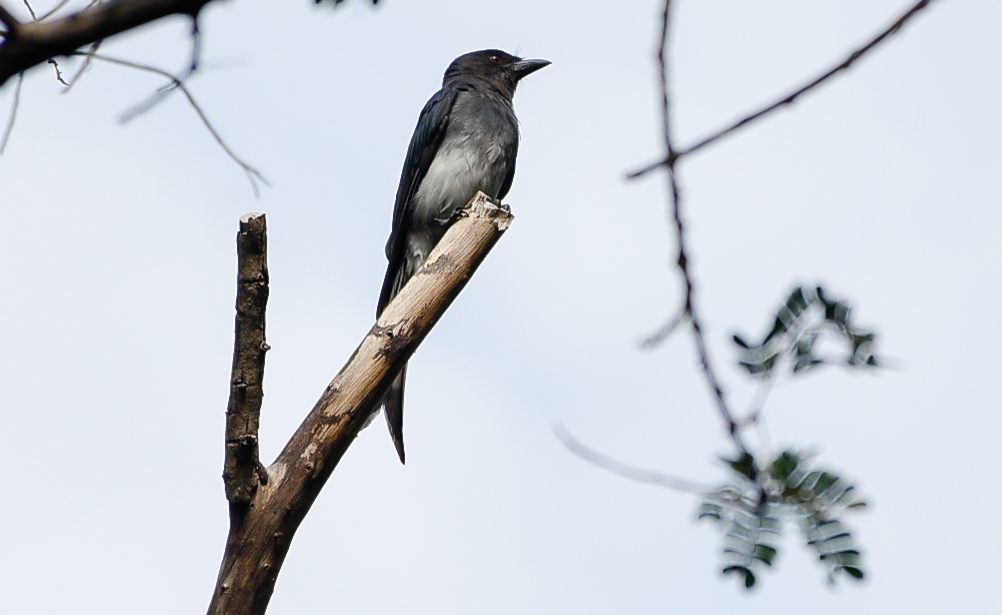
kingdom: Animalia
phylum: Chordata
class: Aves
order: Passeriformes
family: Dicruridae
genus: Dicrurus
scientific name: Dicrurus caerulescens
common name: White-bellied drongo
